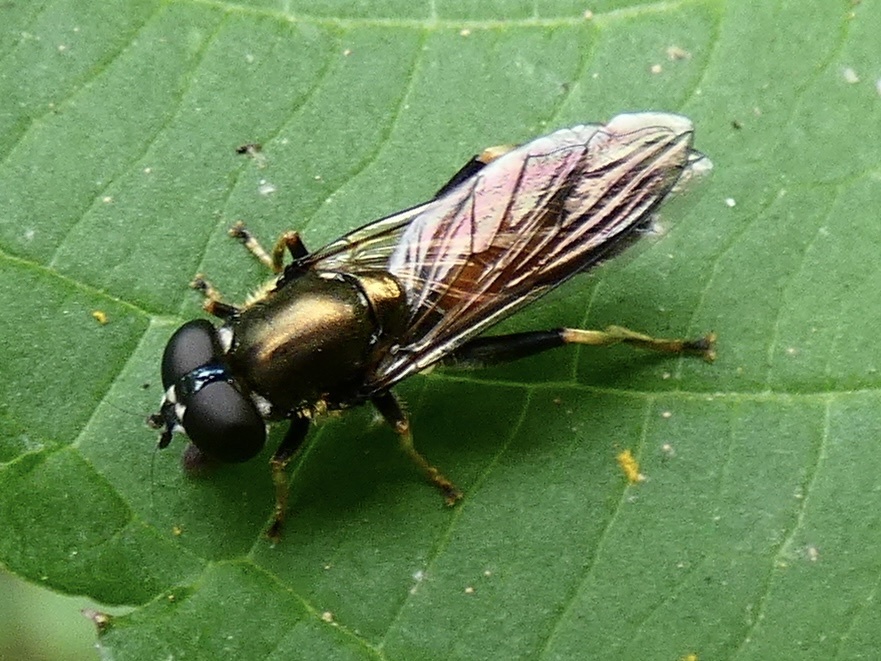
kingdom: Animalia
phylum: Arthropoda
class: Insecta
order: Diptera
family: Syrphidae
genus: Xylota
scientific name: Xylota segnis
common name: Brown-toed forest fly
